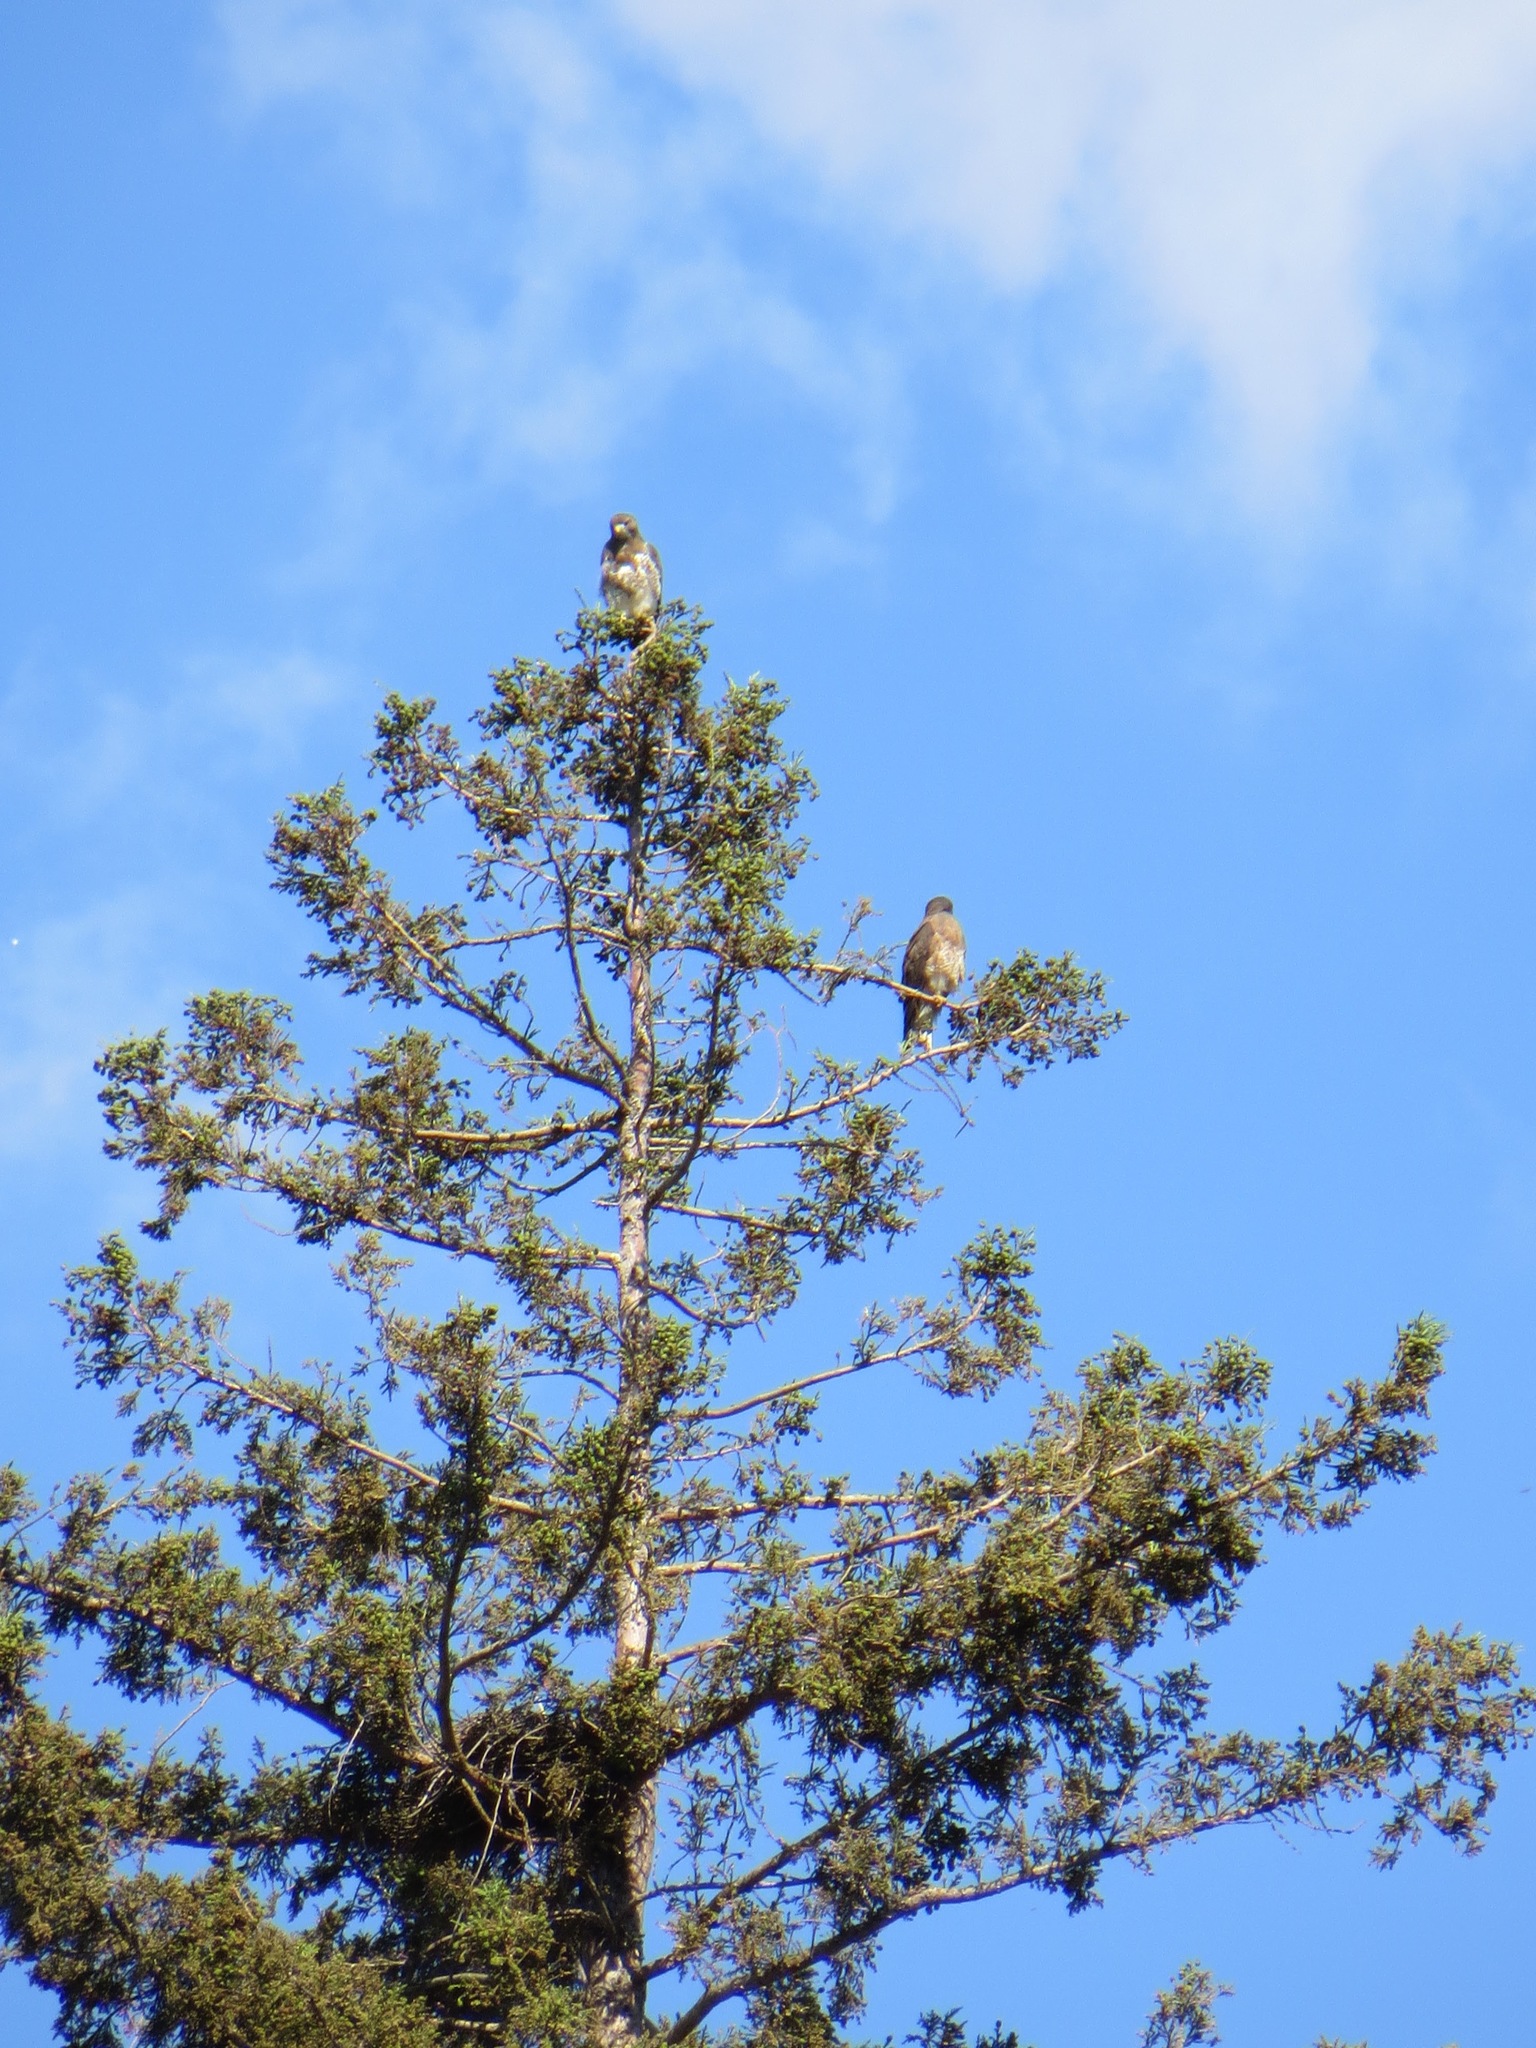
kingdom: Animalia
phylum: Chordata
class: Aves
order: Accipitriformes
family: Accipitridae
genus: Buteo
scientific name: Buteo swainsoni
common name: Swainson's hawk
